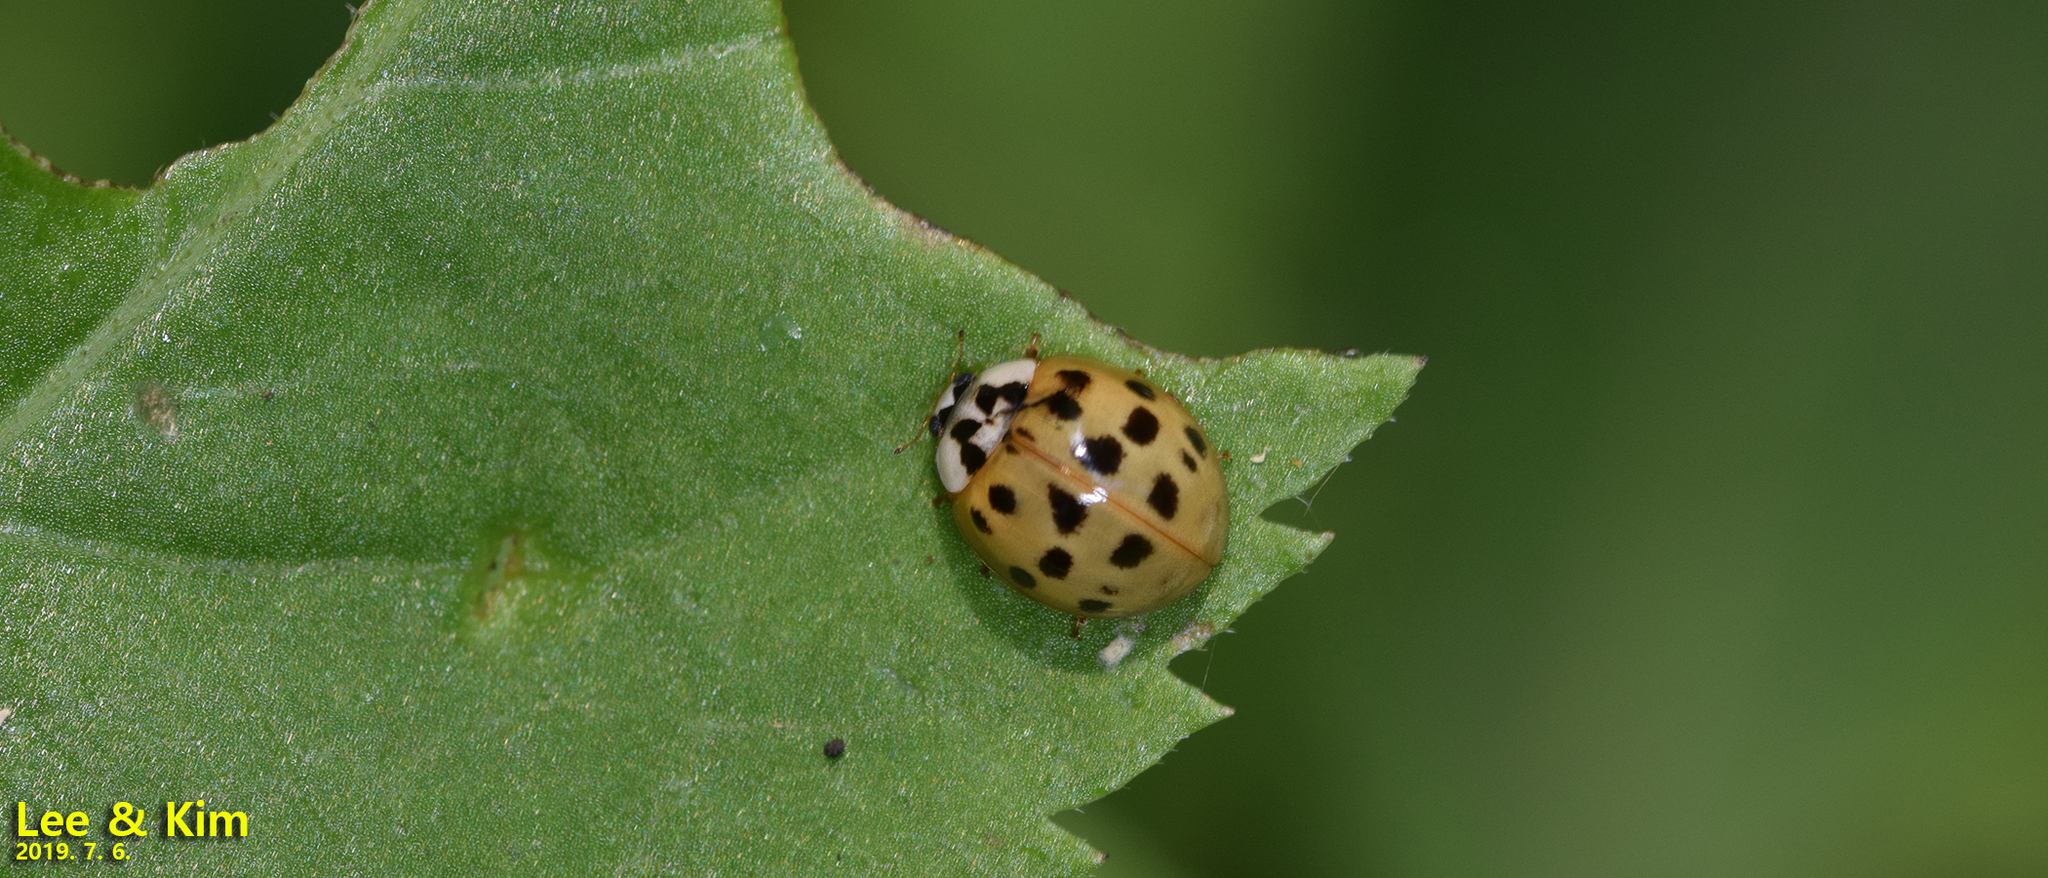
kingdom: Animalia
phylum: Arthropoda
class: Insecta
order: Coleoptera
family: Coccinellidae
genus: Harmonia
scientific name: Harmonia axyridis
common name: Harlequin ladybird
